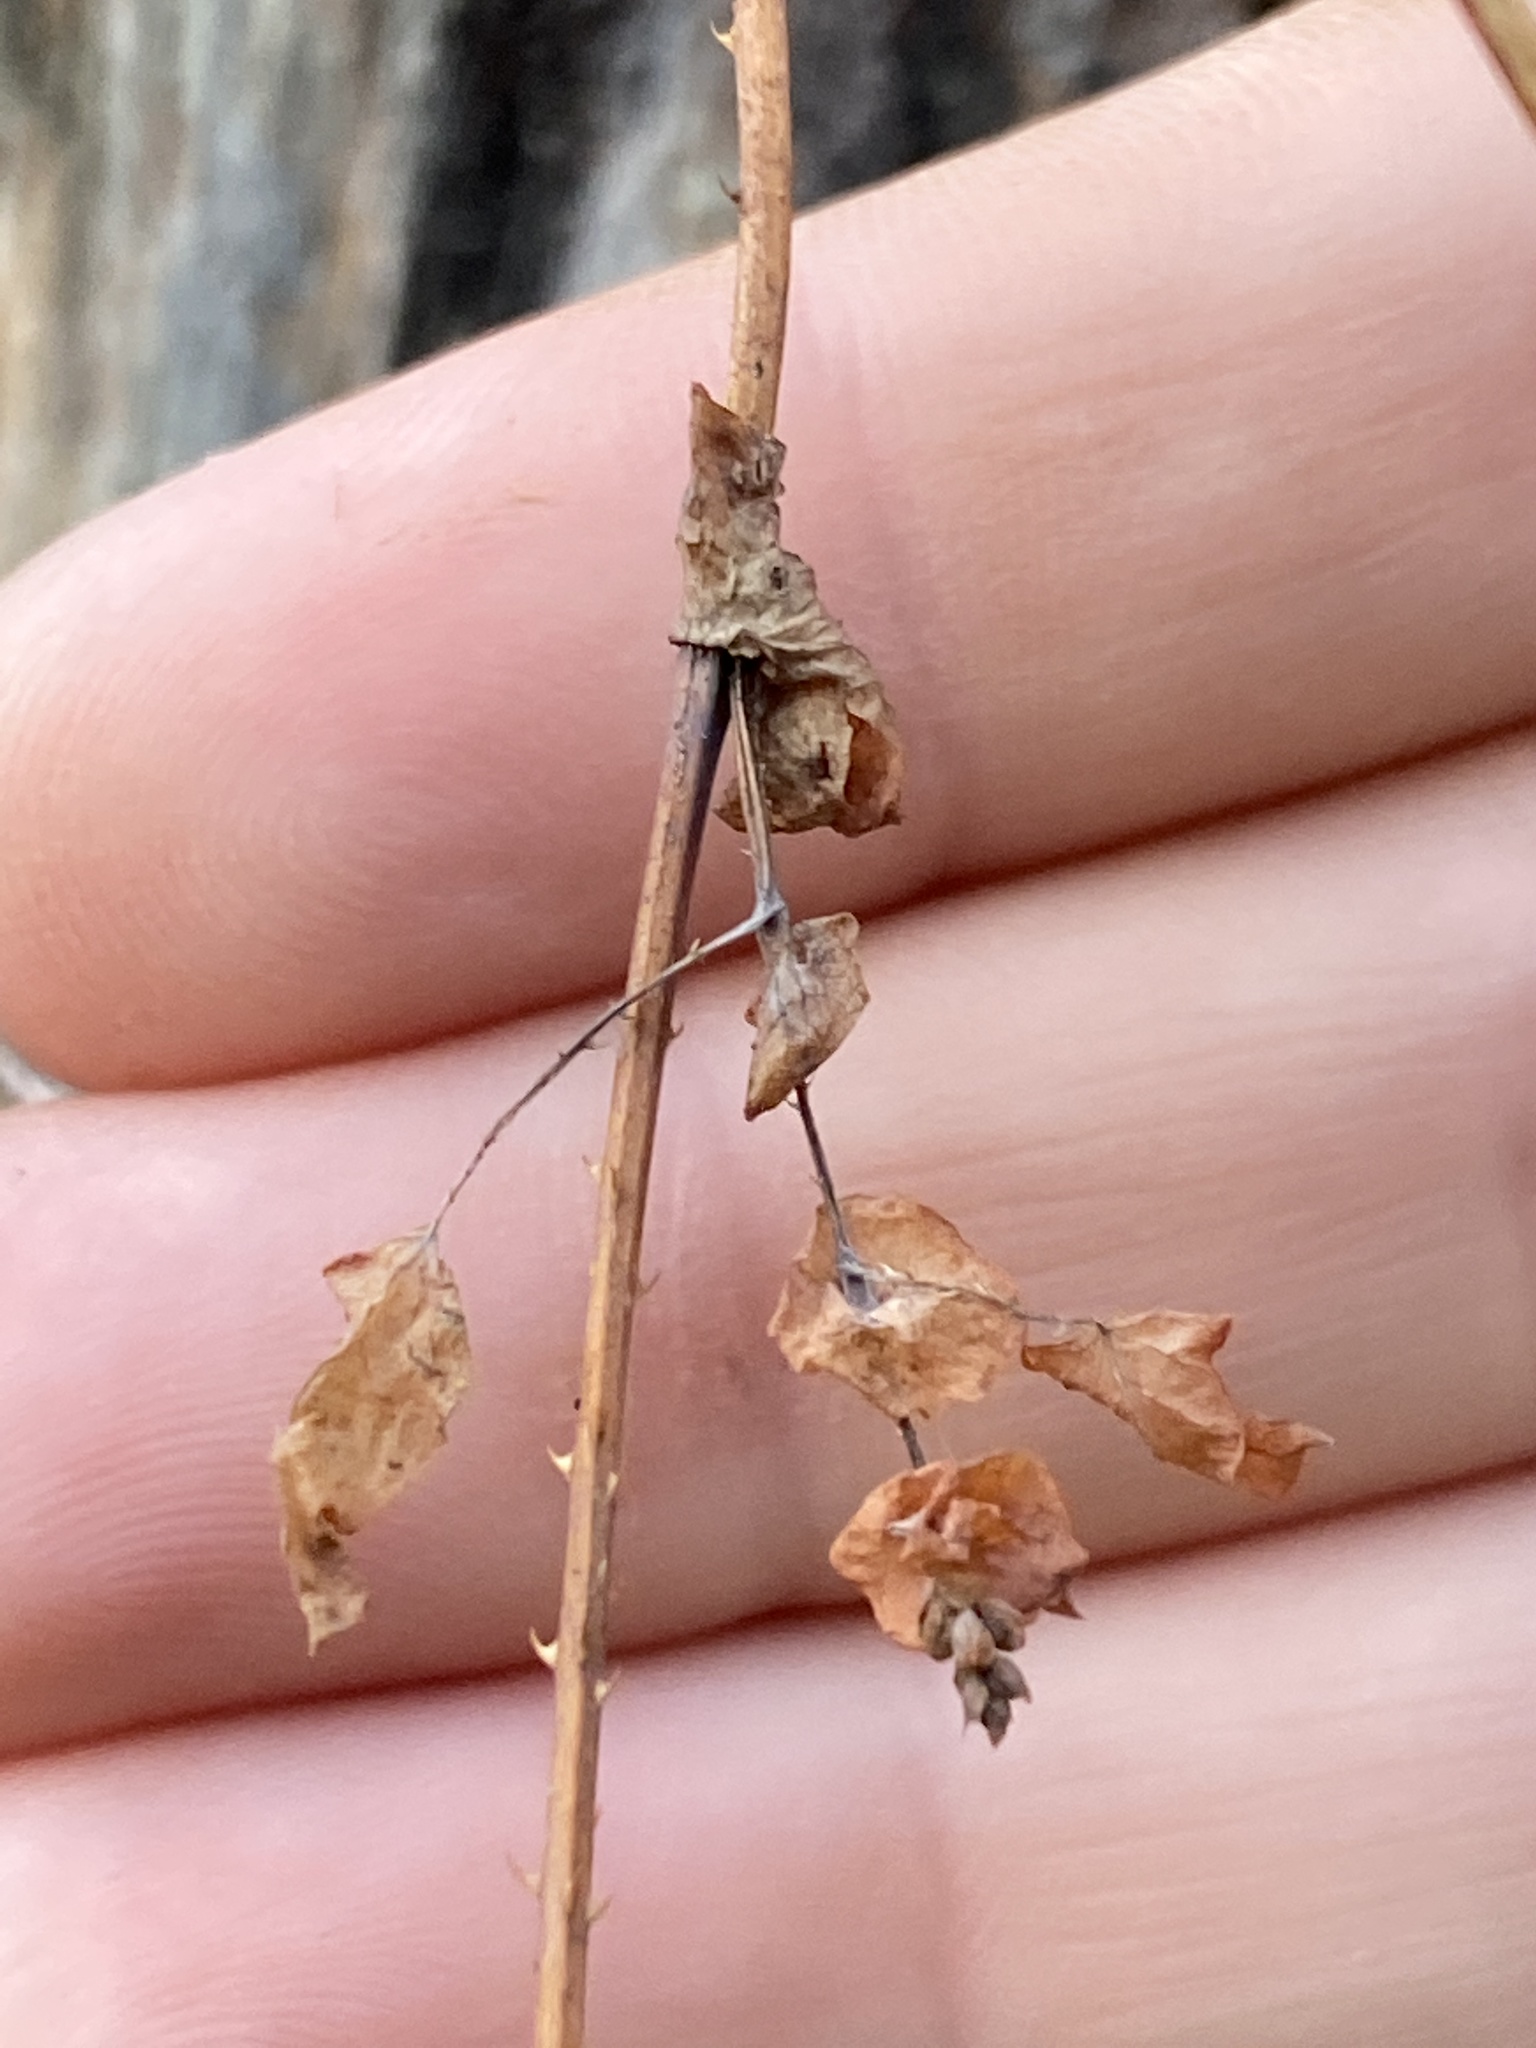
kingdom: Plantae
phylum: Tracheophyta
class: Magnoliopsida
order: Caryophyllales
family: Polygonaceae
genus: Persicaria
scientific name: Persicaria perfoliata
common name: Asiatic tearthumb
